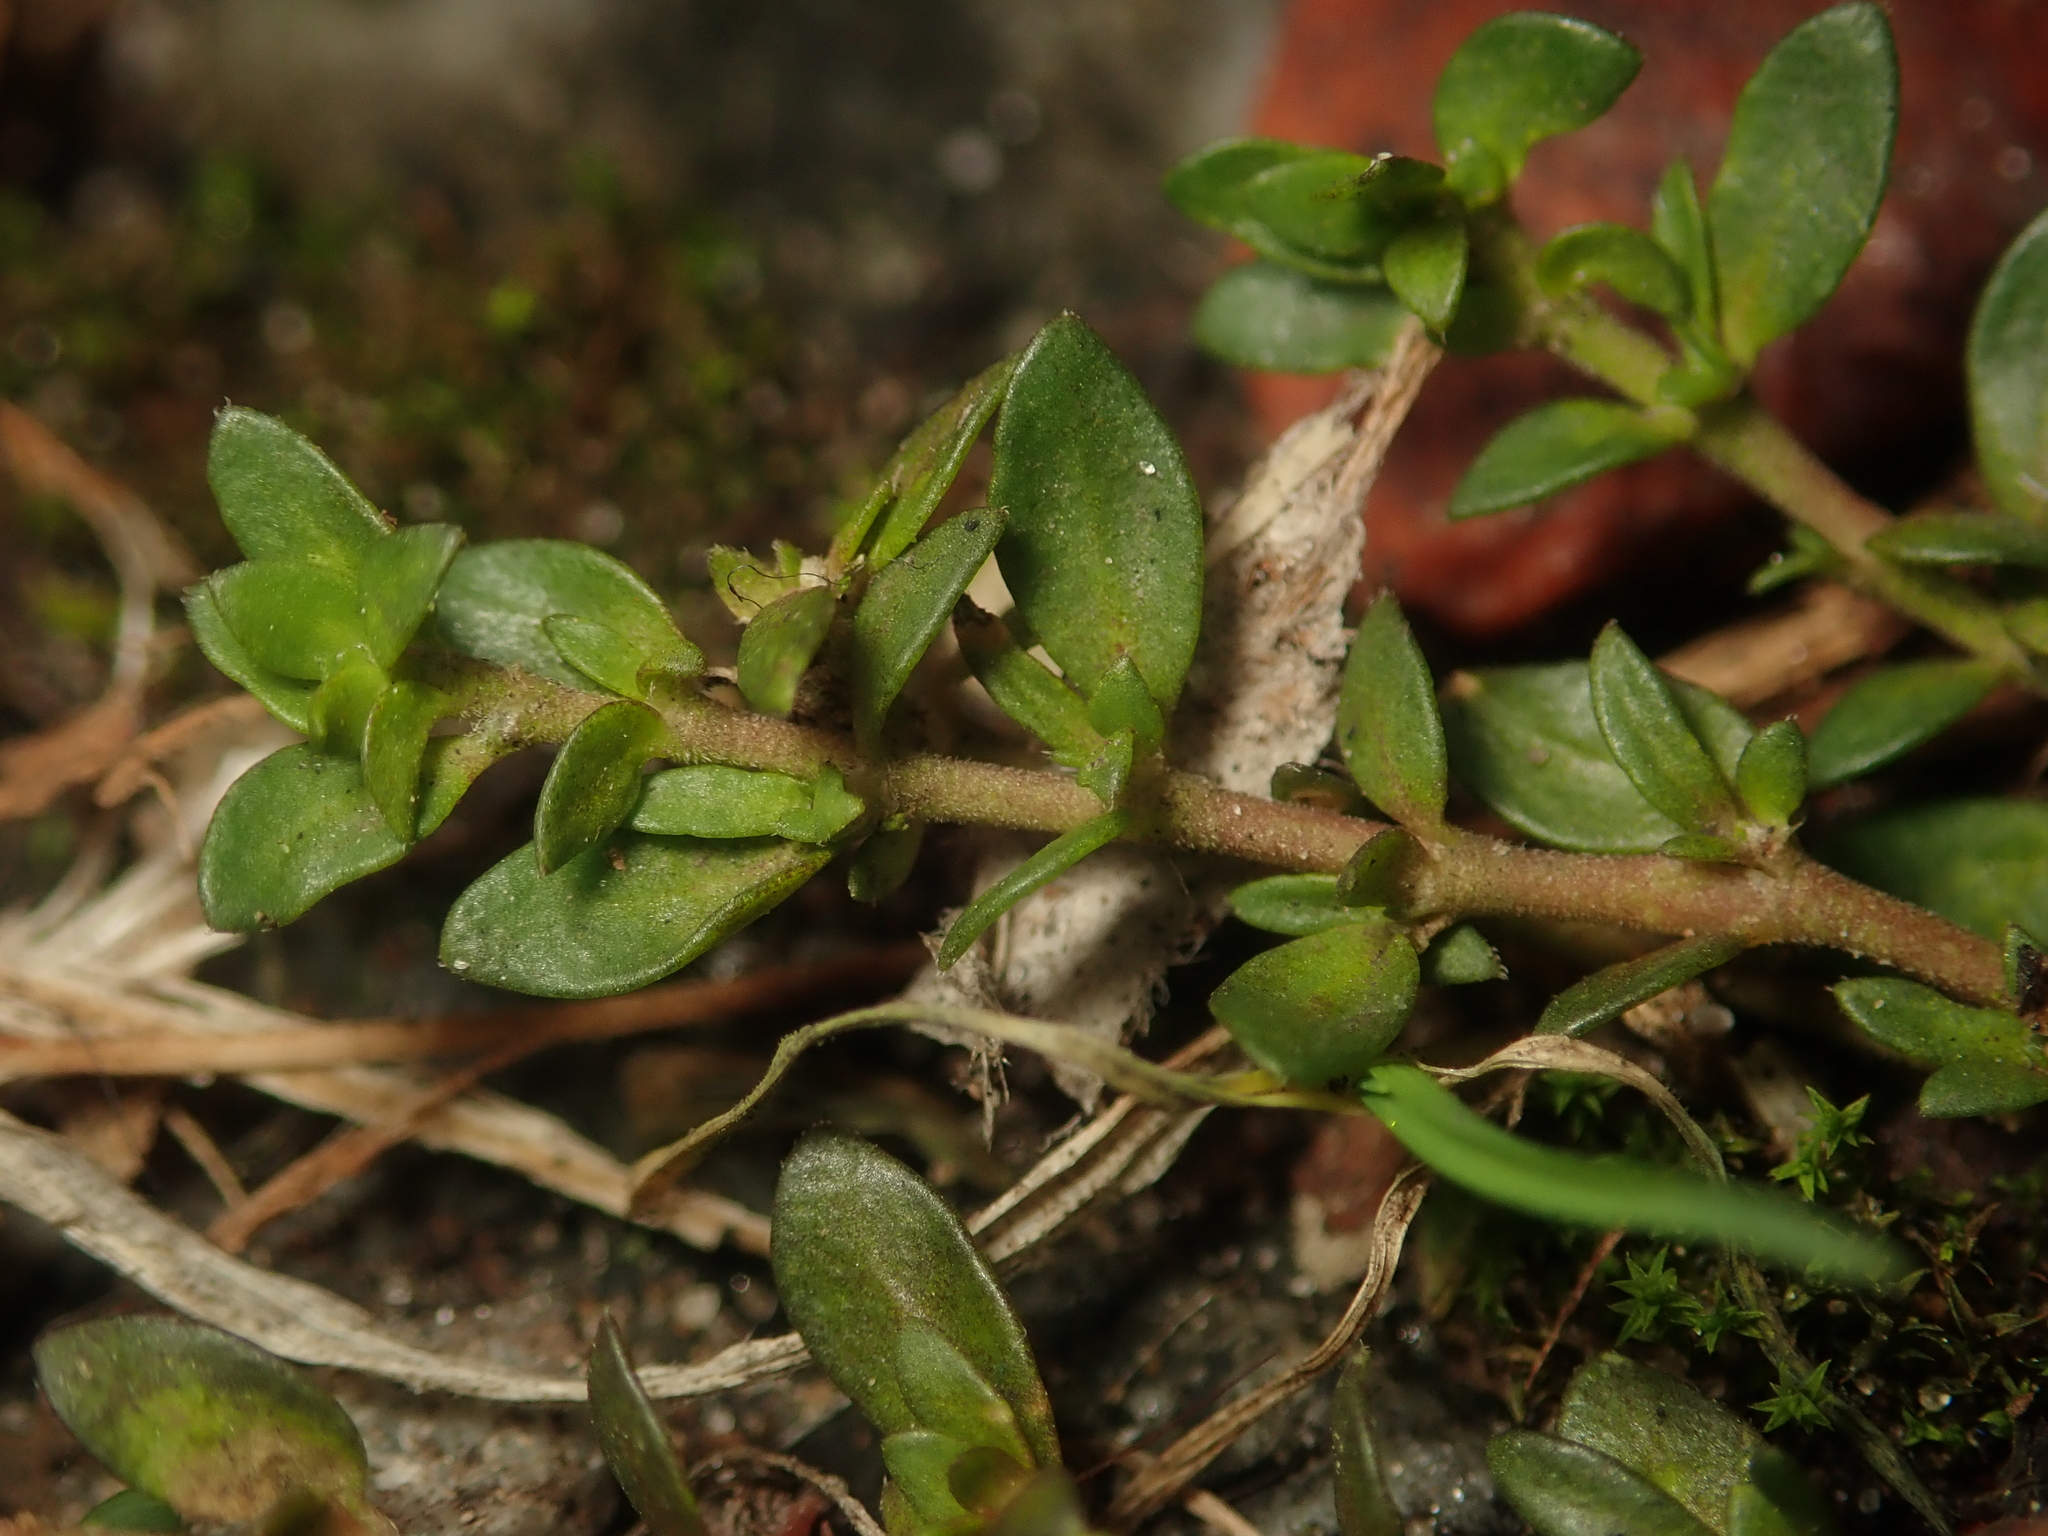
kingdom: Plantae
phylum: Tracheophyta
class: Magnoliopsida
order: Caryophyllales
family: Caryophyllaceae
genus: Herniaria
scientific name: Herniaria glabra
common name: Smooth rupturewort
